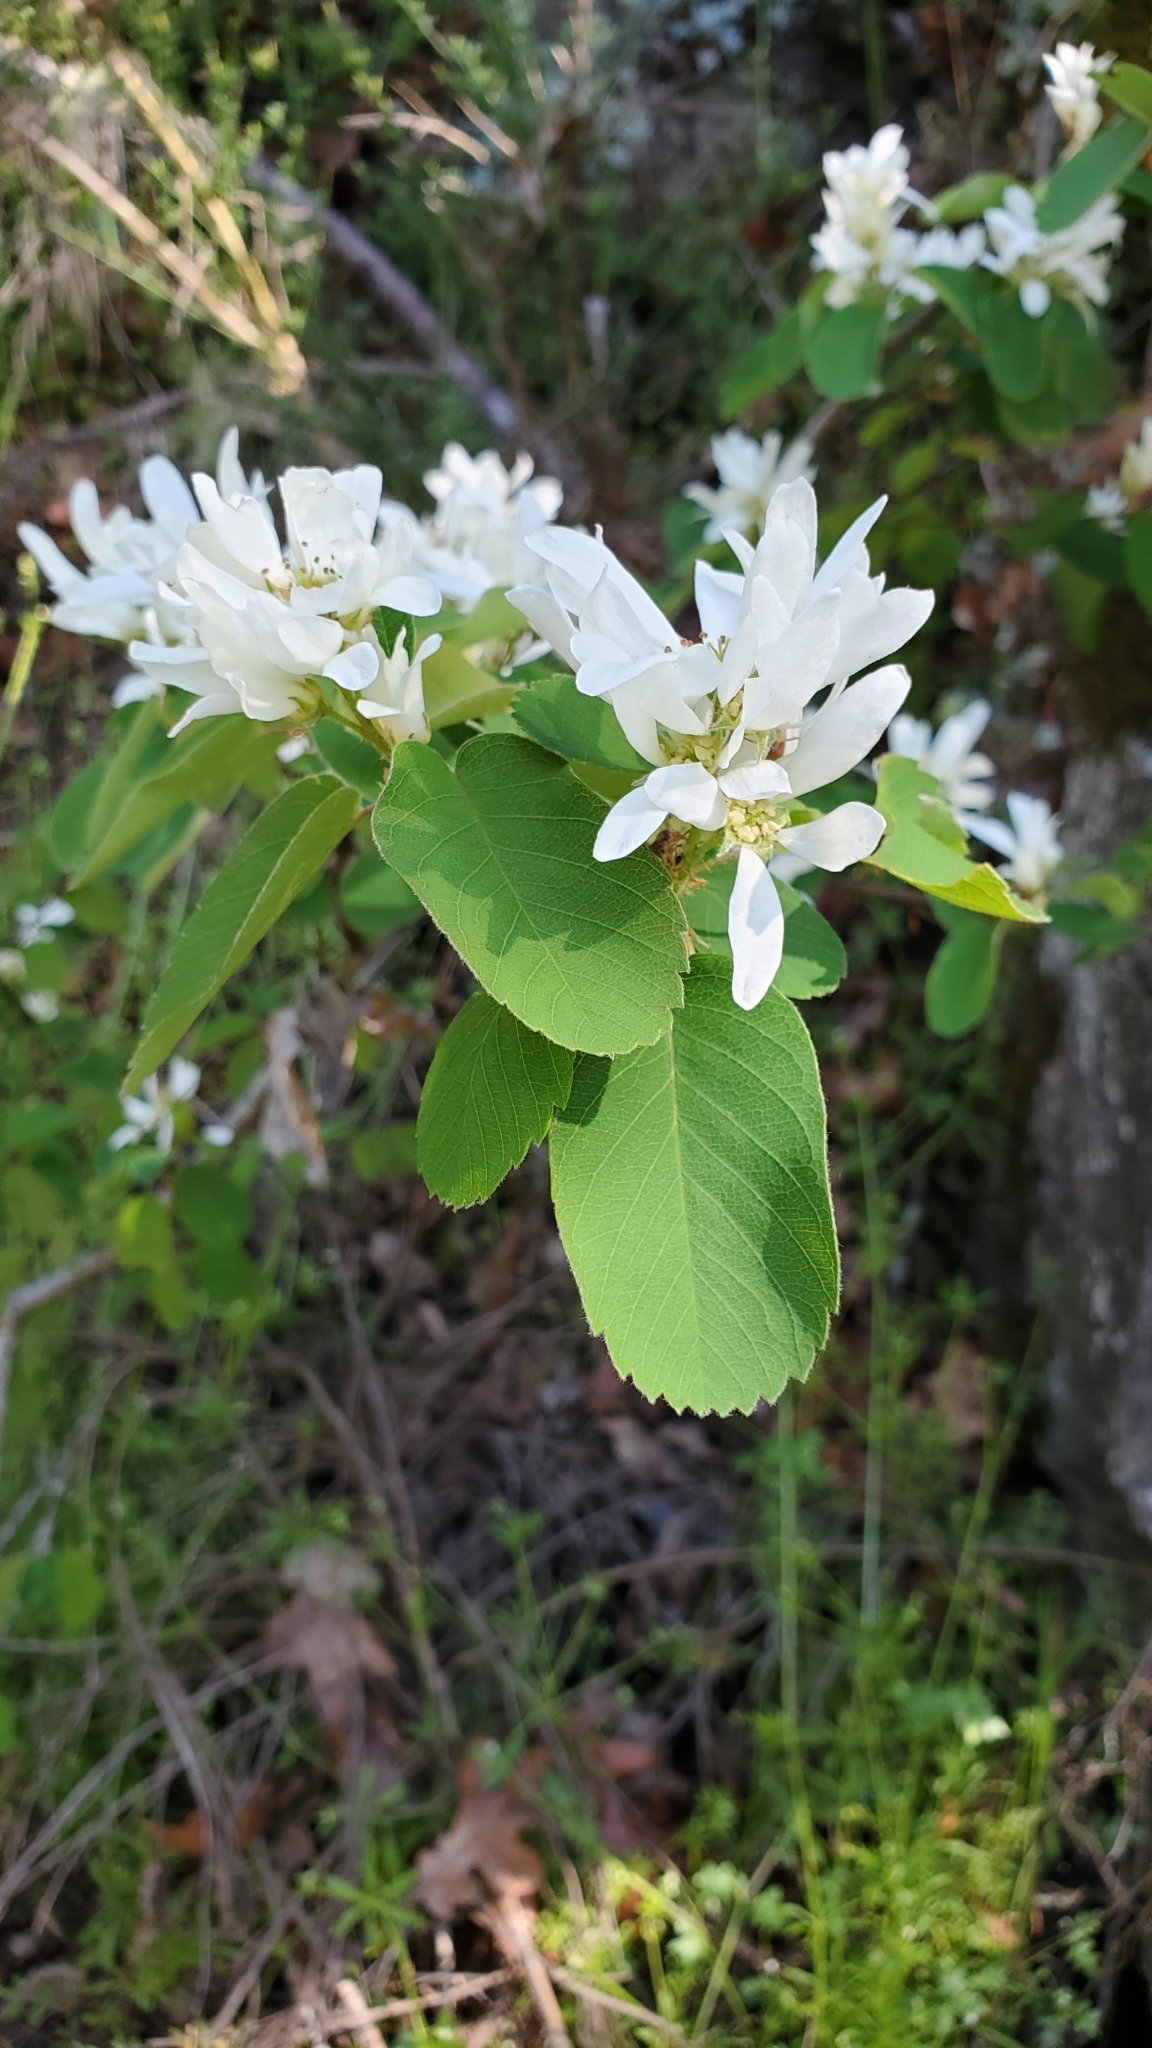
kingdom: Plantae
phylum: Tracheophyta
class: Magnoliopsida
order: Rosales
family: Rosaceae
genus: Amelanchier
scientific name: Amelanchier alnifolia
